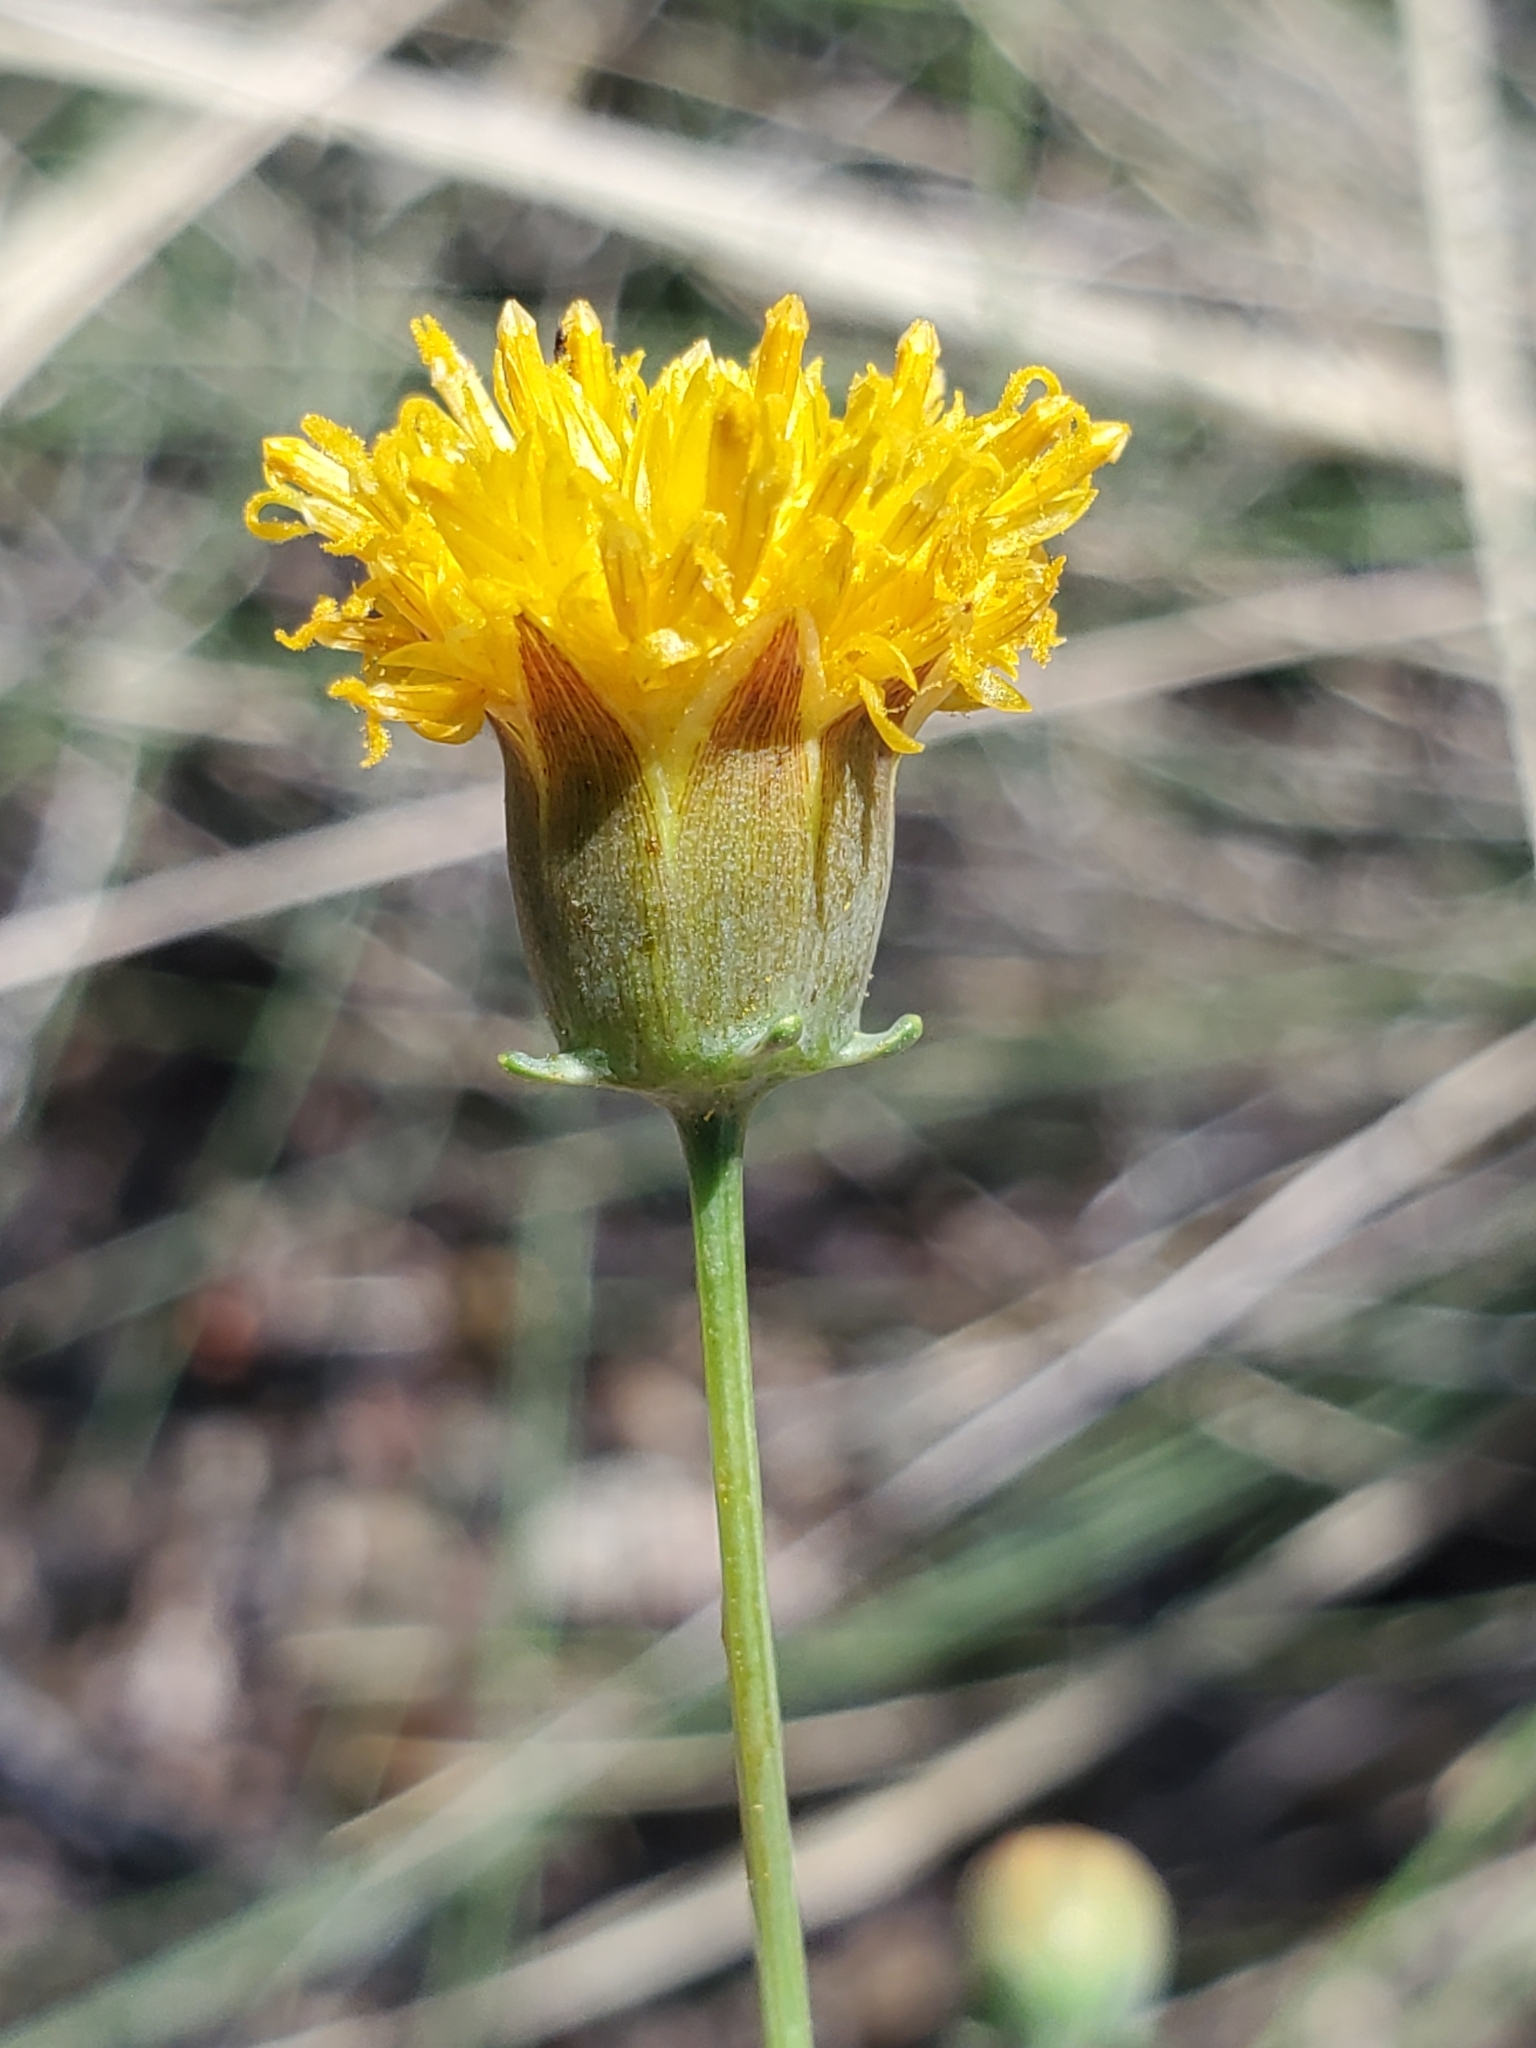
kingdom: Plantae
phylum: Tracheophyta
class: Magnoliopsida
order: Asterales
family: Asteraceae
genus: Thelesperma
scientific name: Thelesperma megapotamicum
